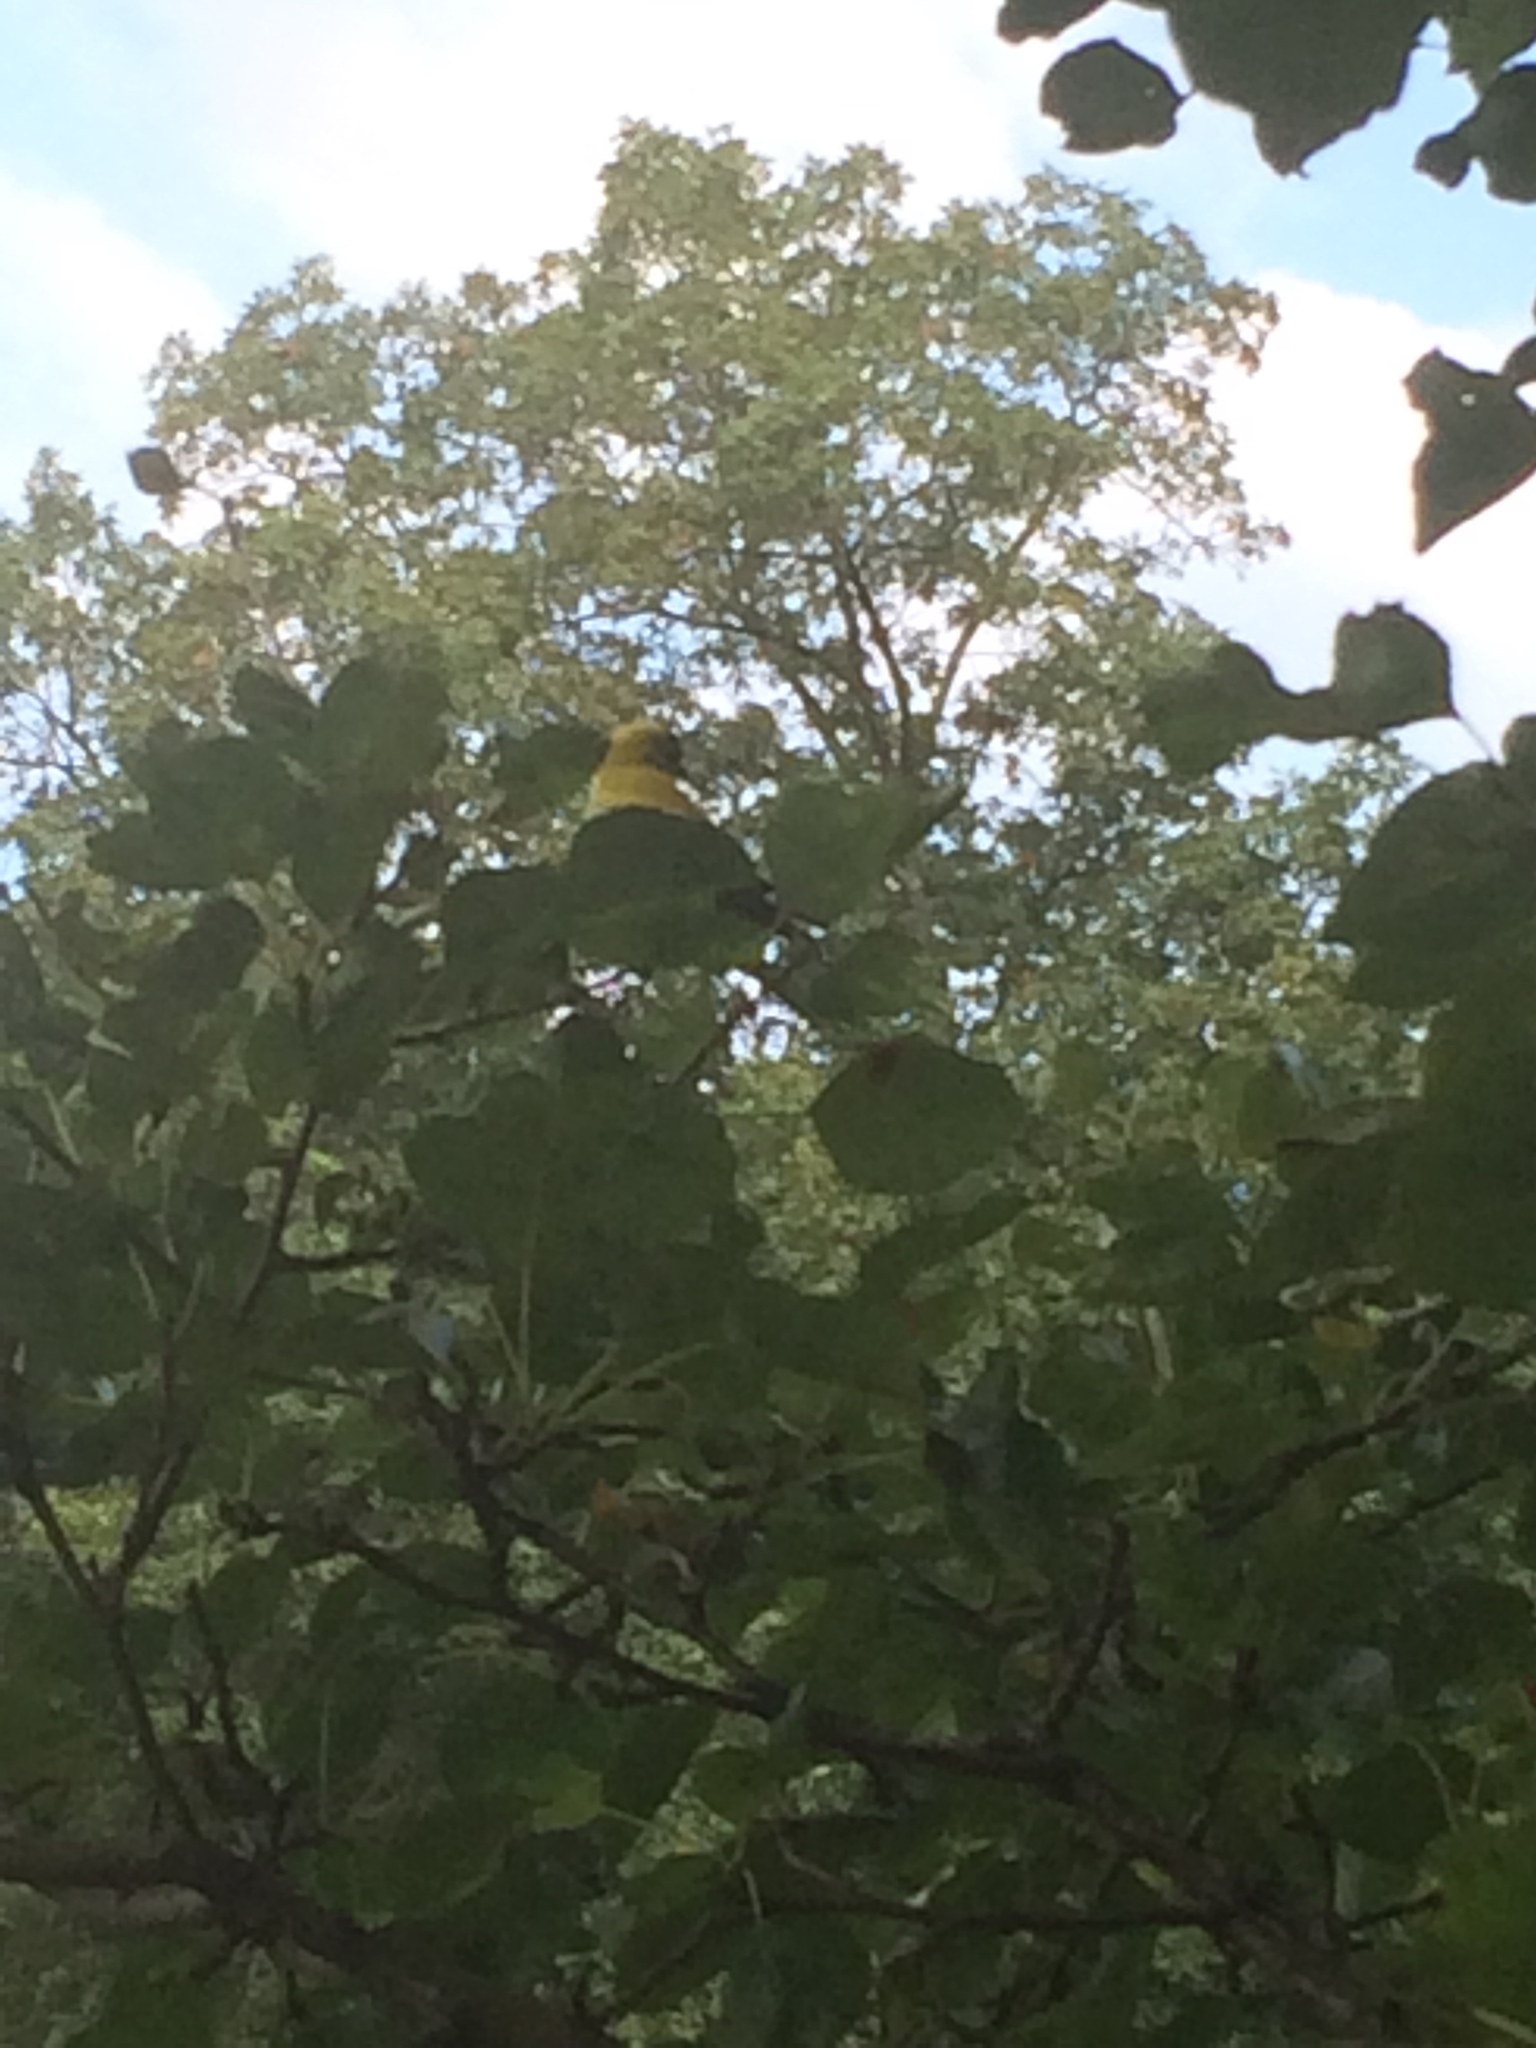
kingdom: Animalia
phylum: Chordata
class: Aves
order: Passeriformes
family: Fringillidae
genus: Spinus
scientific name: Spinus tristis
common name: American goldfinch
